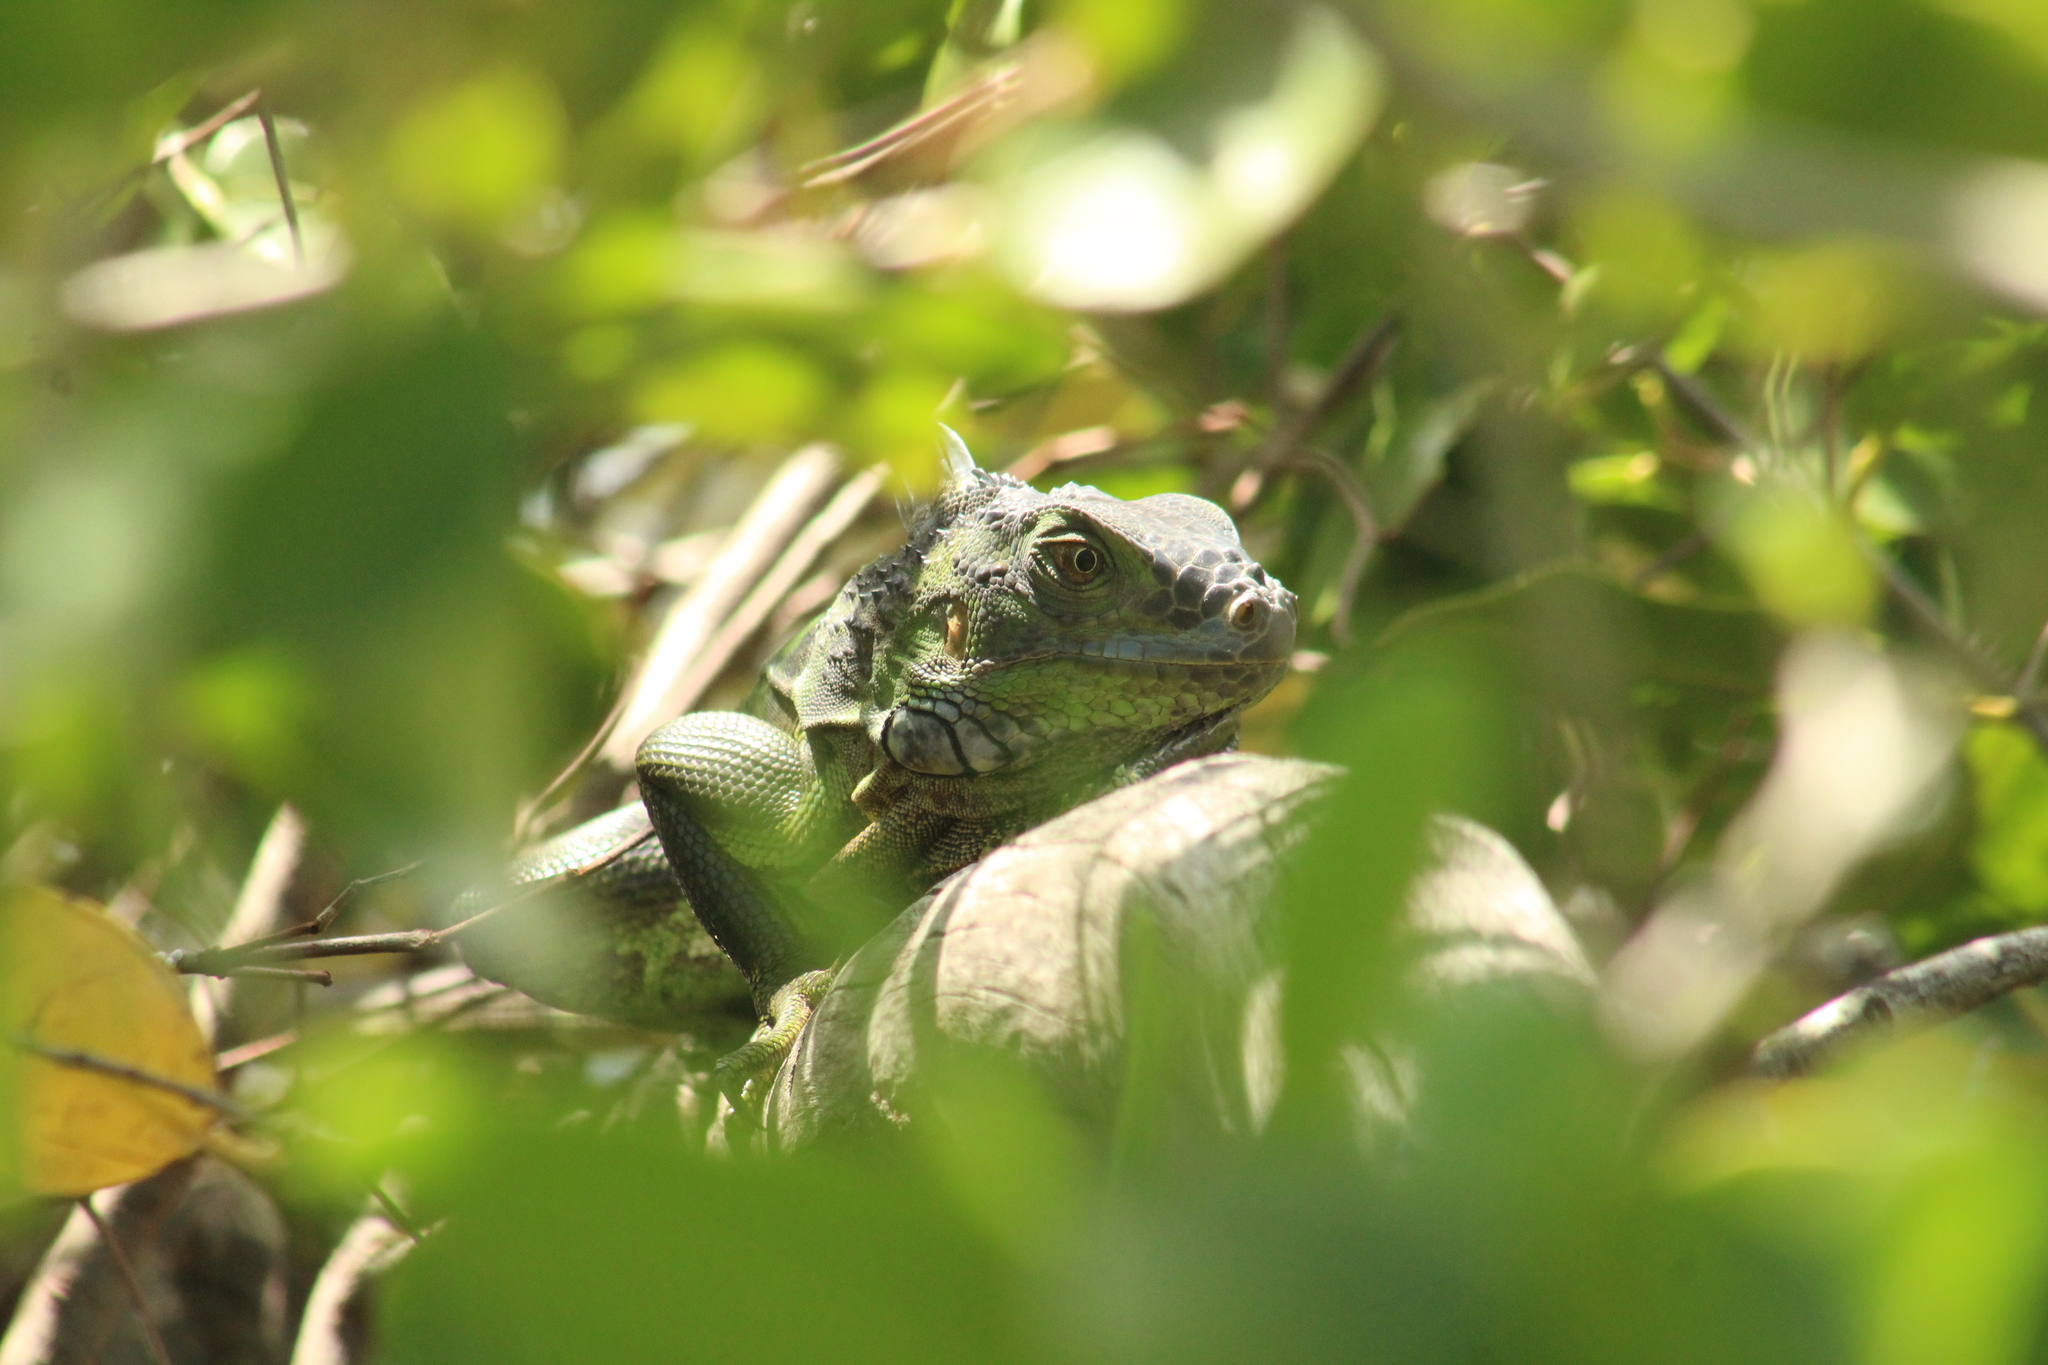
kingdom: Animalia
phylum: Chordata
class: Squamata
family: Iguanidae
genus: Iguana
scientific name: Iguana iguana
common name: Green iguana
